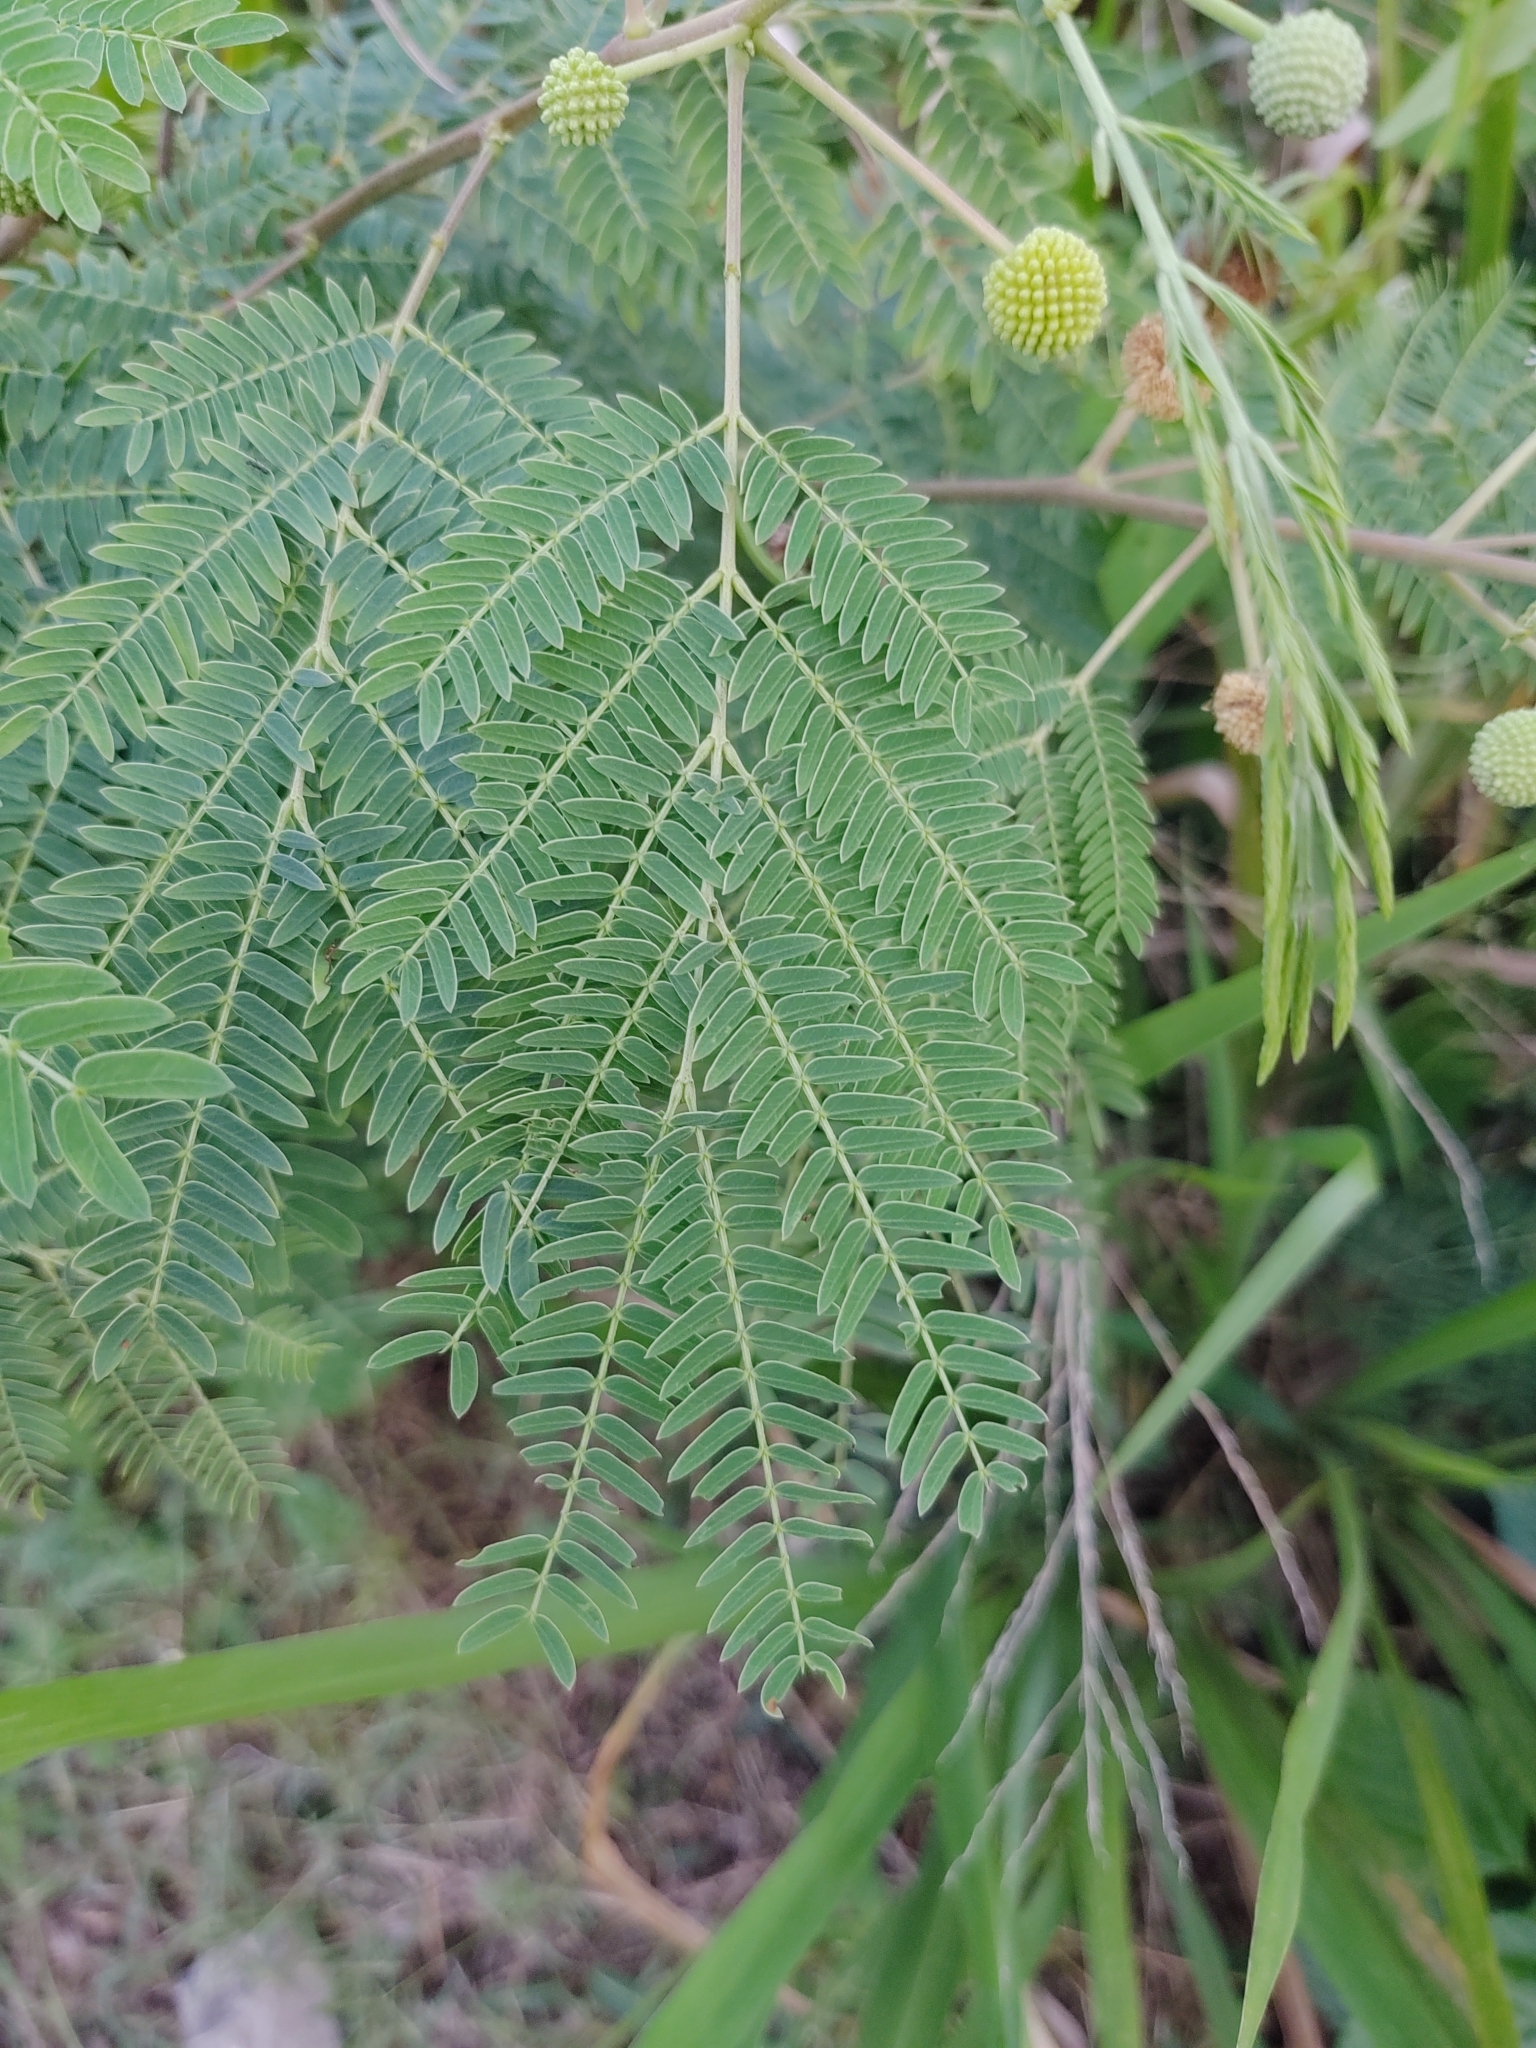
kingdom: Plantae
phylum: Tracheophyta
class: Magnoliopsida
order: Fabales
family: Fabaceae
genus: Leucaena
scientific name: Leucaena leucocephala
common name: White leadtree
